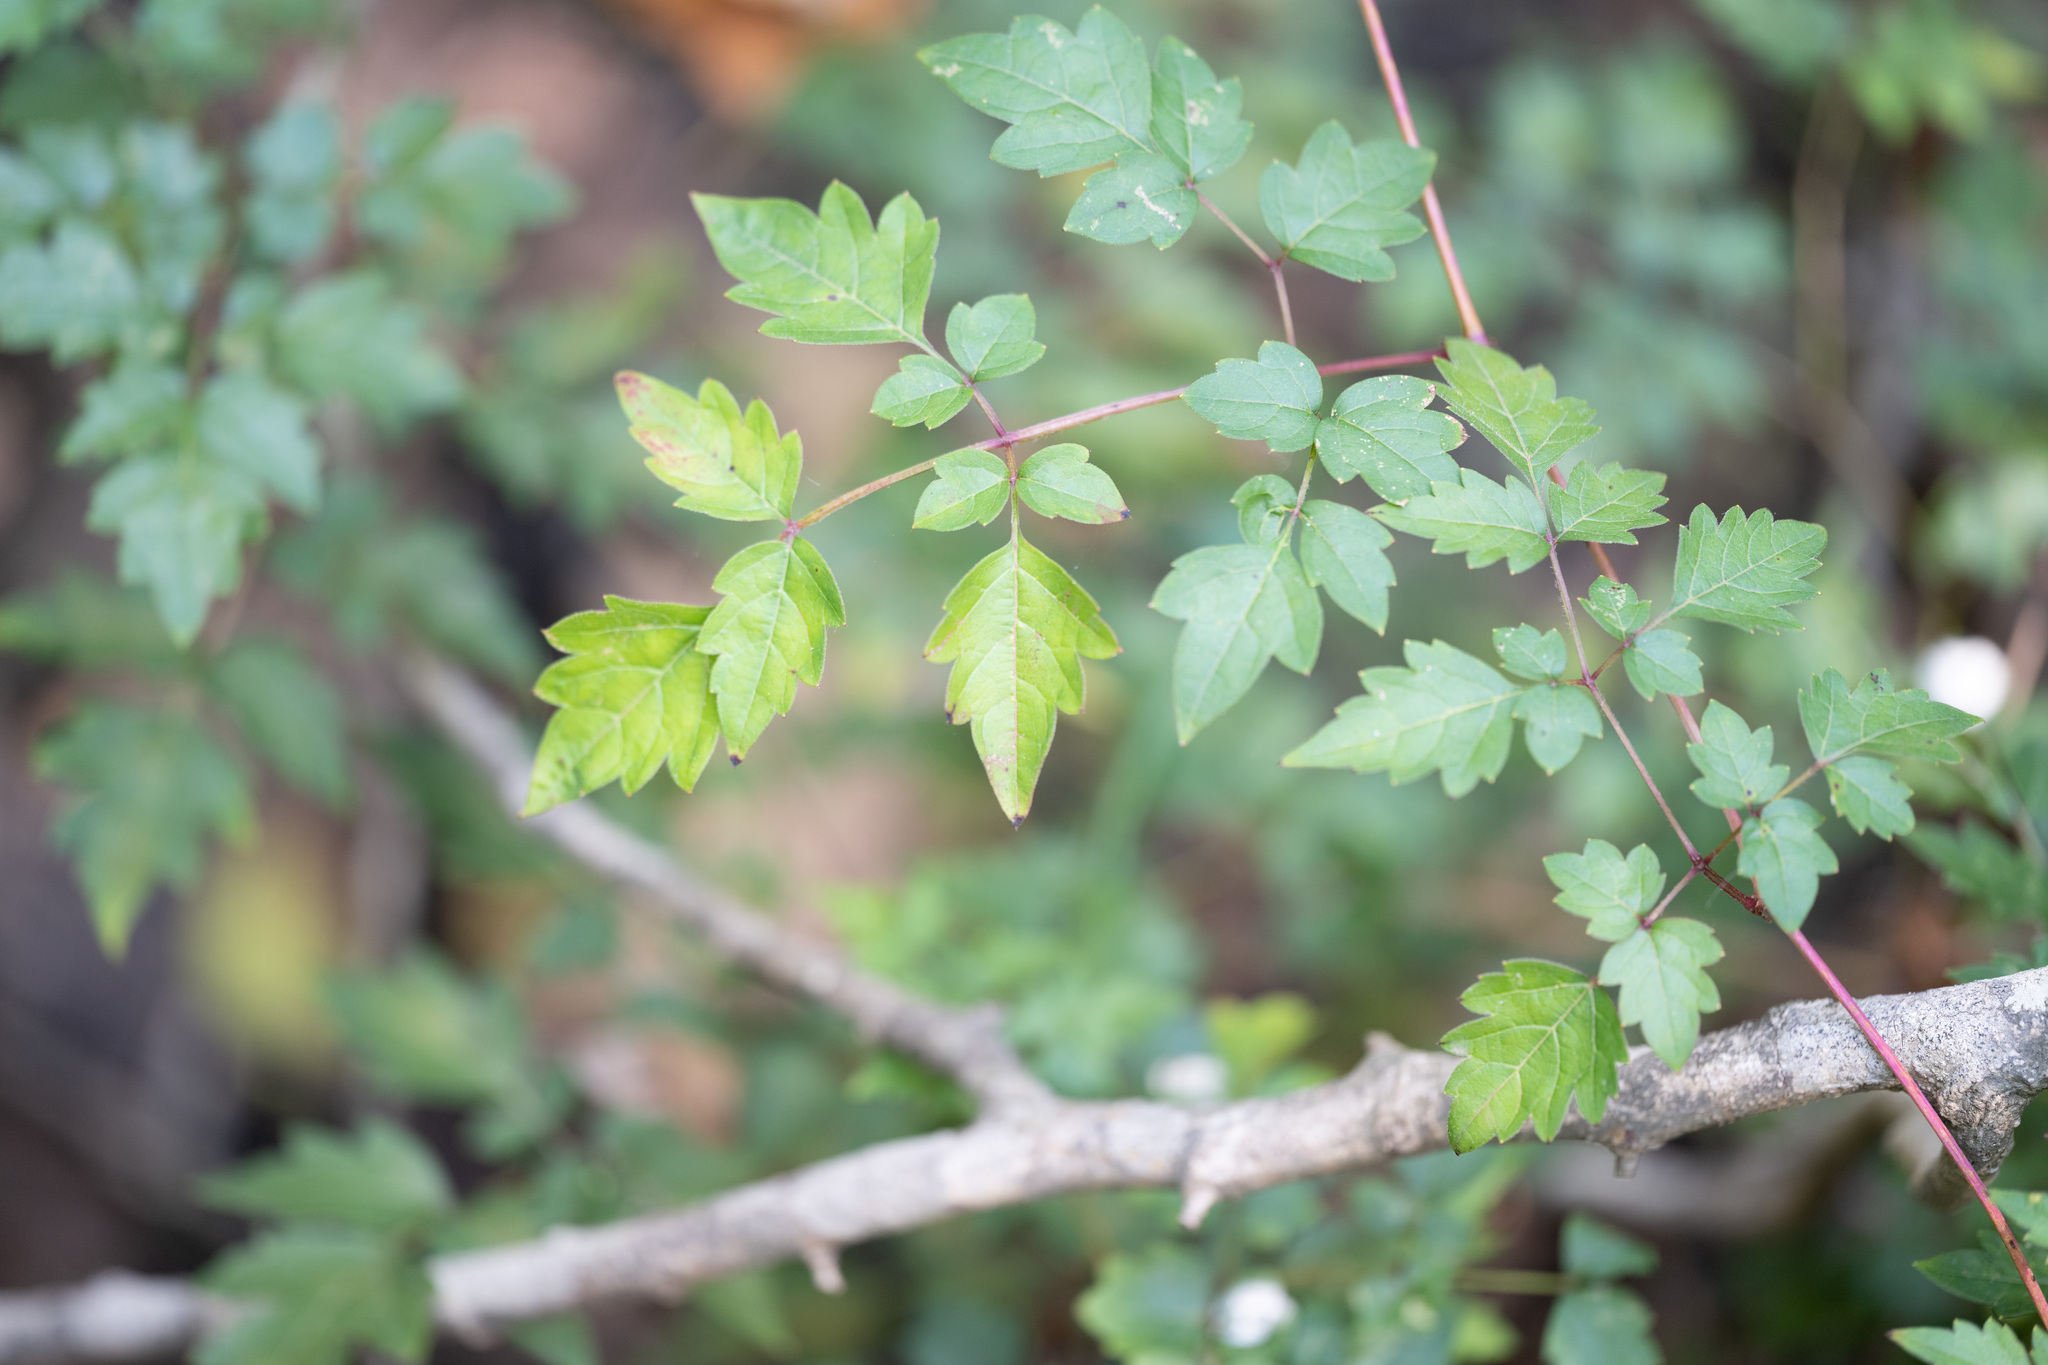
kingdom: Plantae
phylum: Tracheophyta
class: Magnoliopsida
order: Vitales
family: Vitaceae
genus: Nekemias
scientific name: Nekemias arborea
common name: Peppervine
